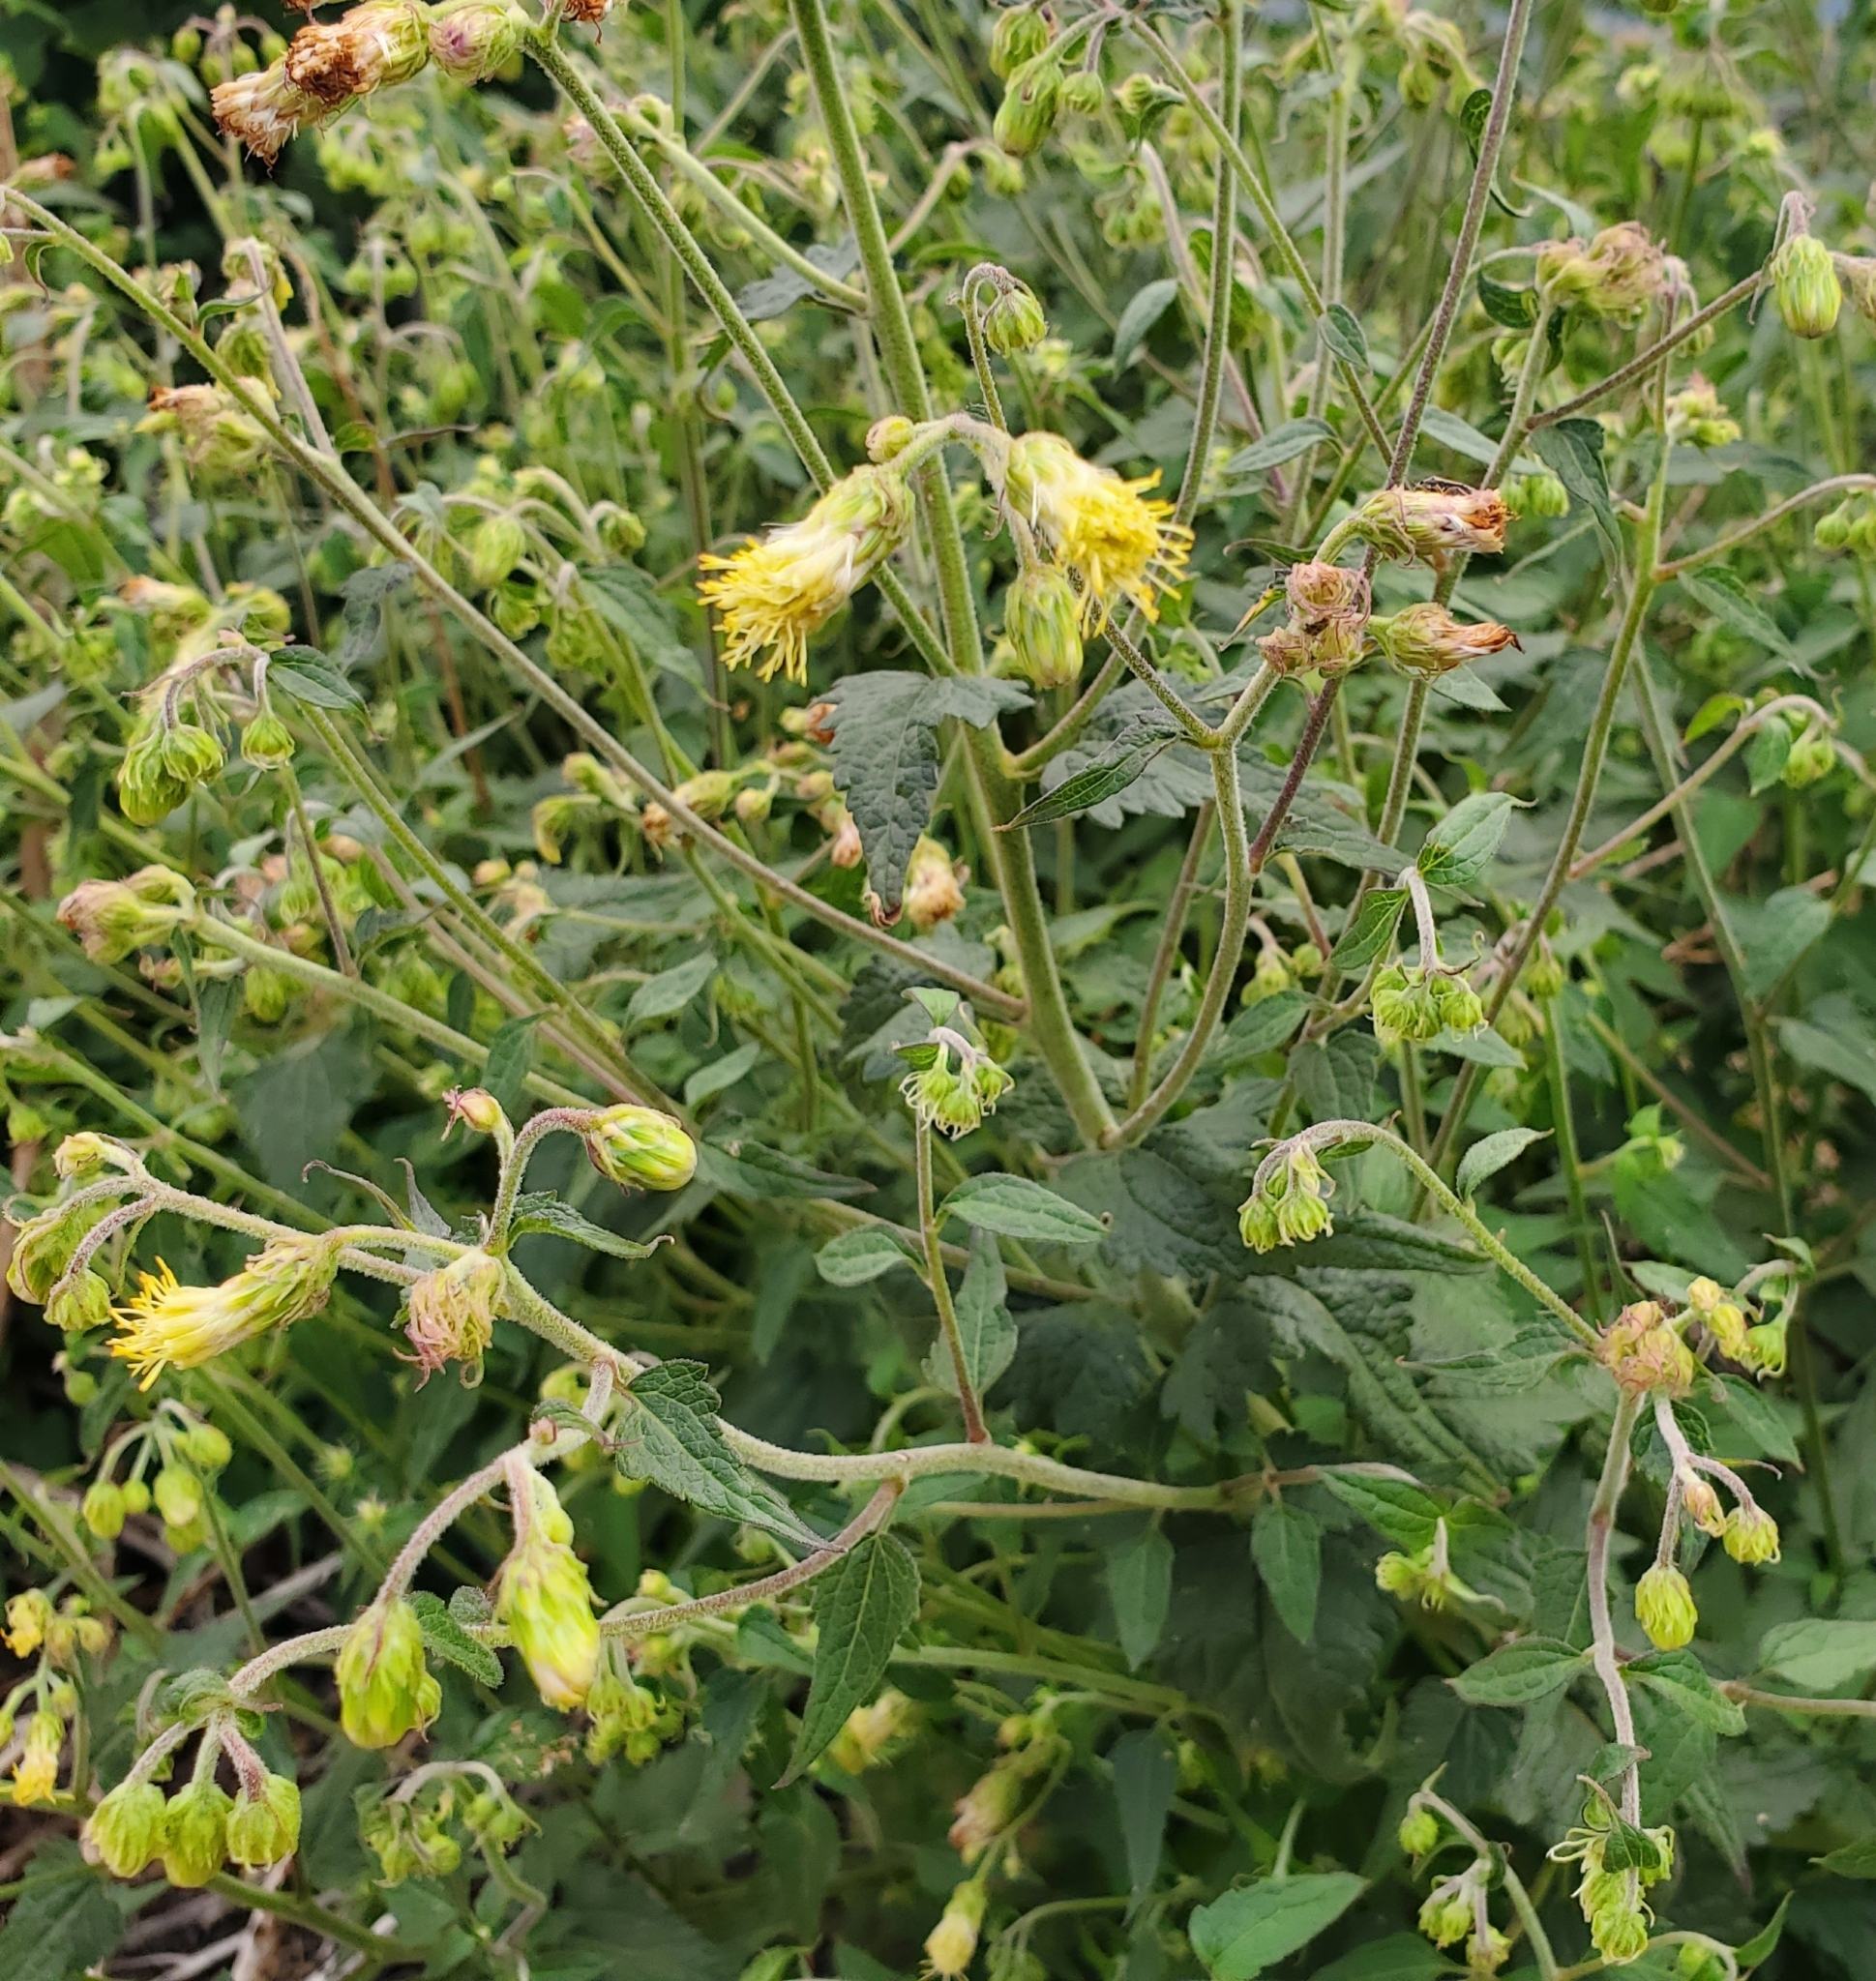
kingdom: Plantae
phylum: Tracheophyta
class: Magnoliopsida
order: Asterales
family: Asteraceae
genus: Brickellia
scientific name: Brickellia grandiflora
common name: Large-flowered brickellia
